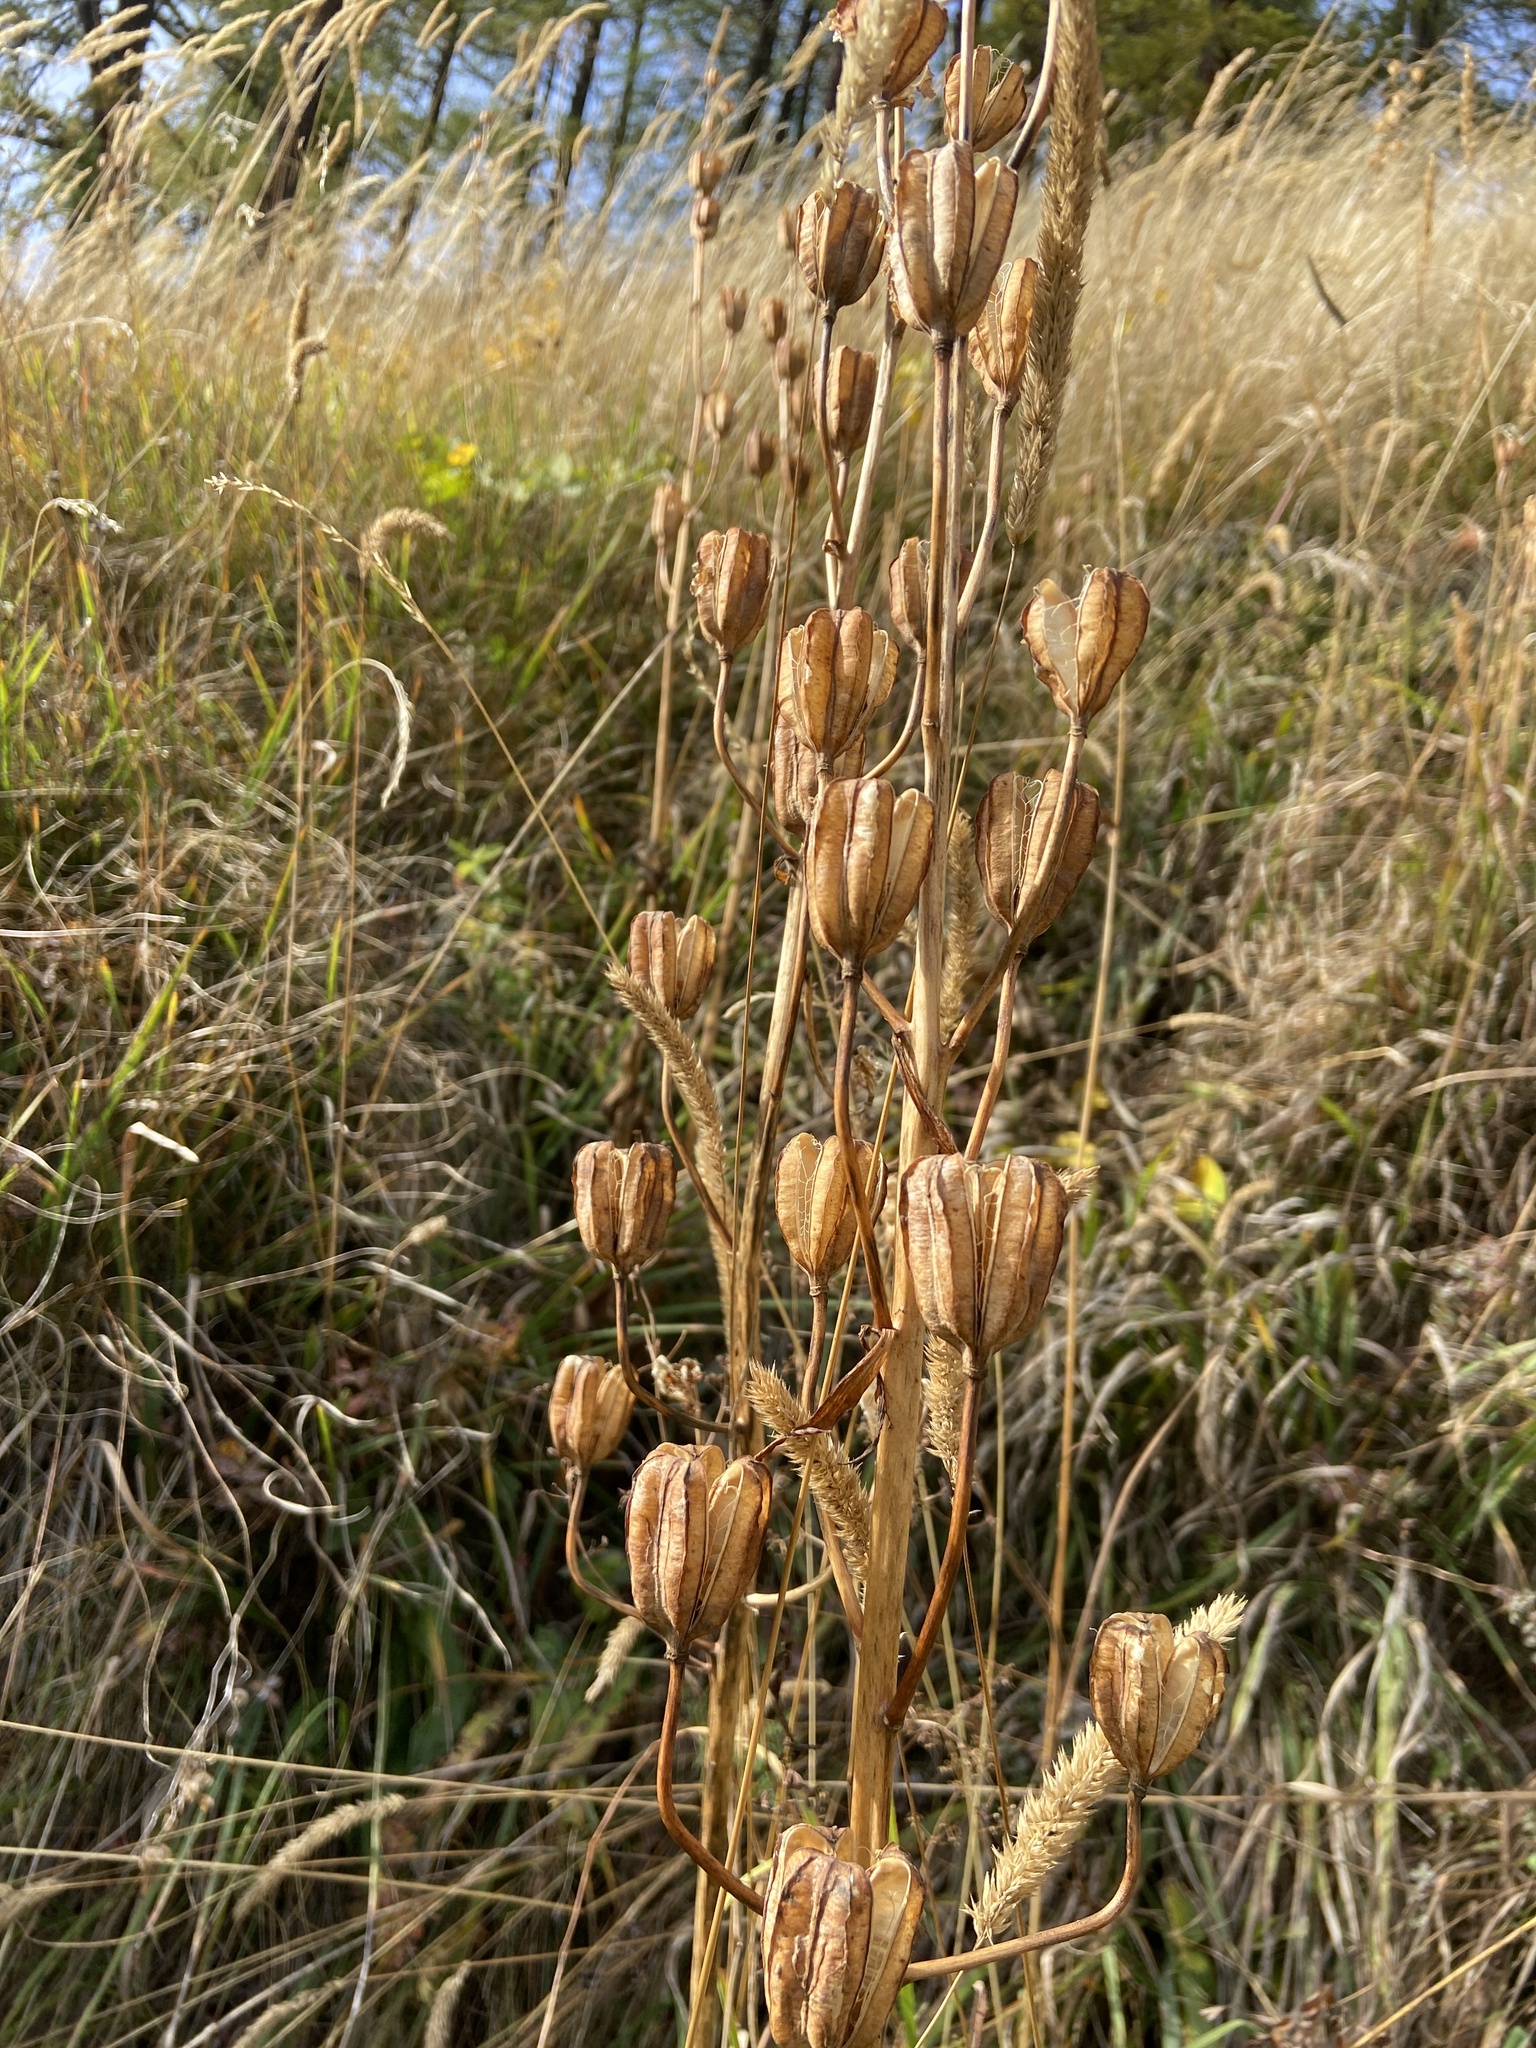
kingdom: Plantae
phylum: Tracheophyta
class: Liliopsida
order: Liliales
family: Liliaceae
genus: Lilium
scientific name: Lilium martagon
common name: Martagon lily
